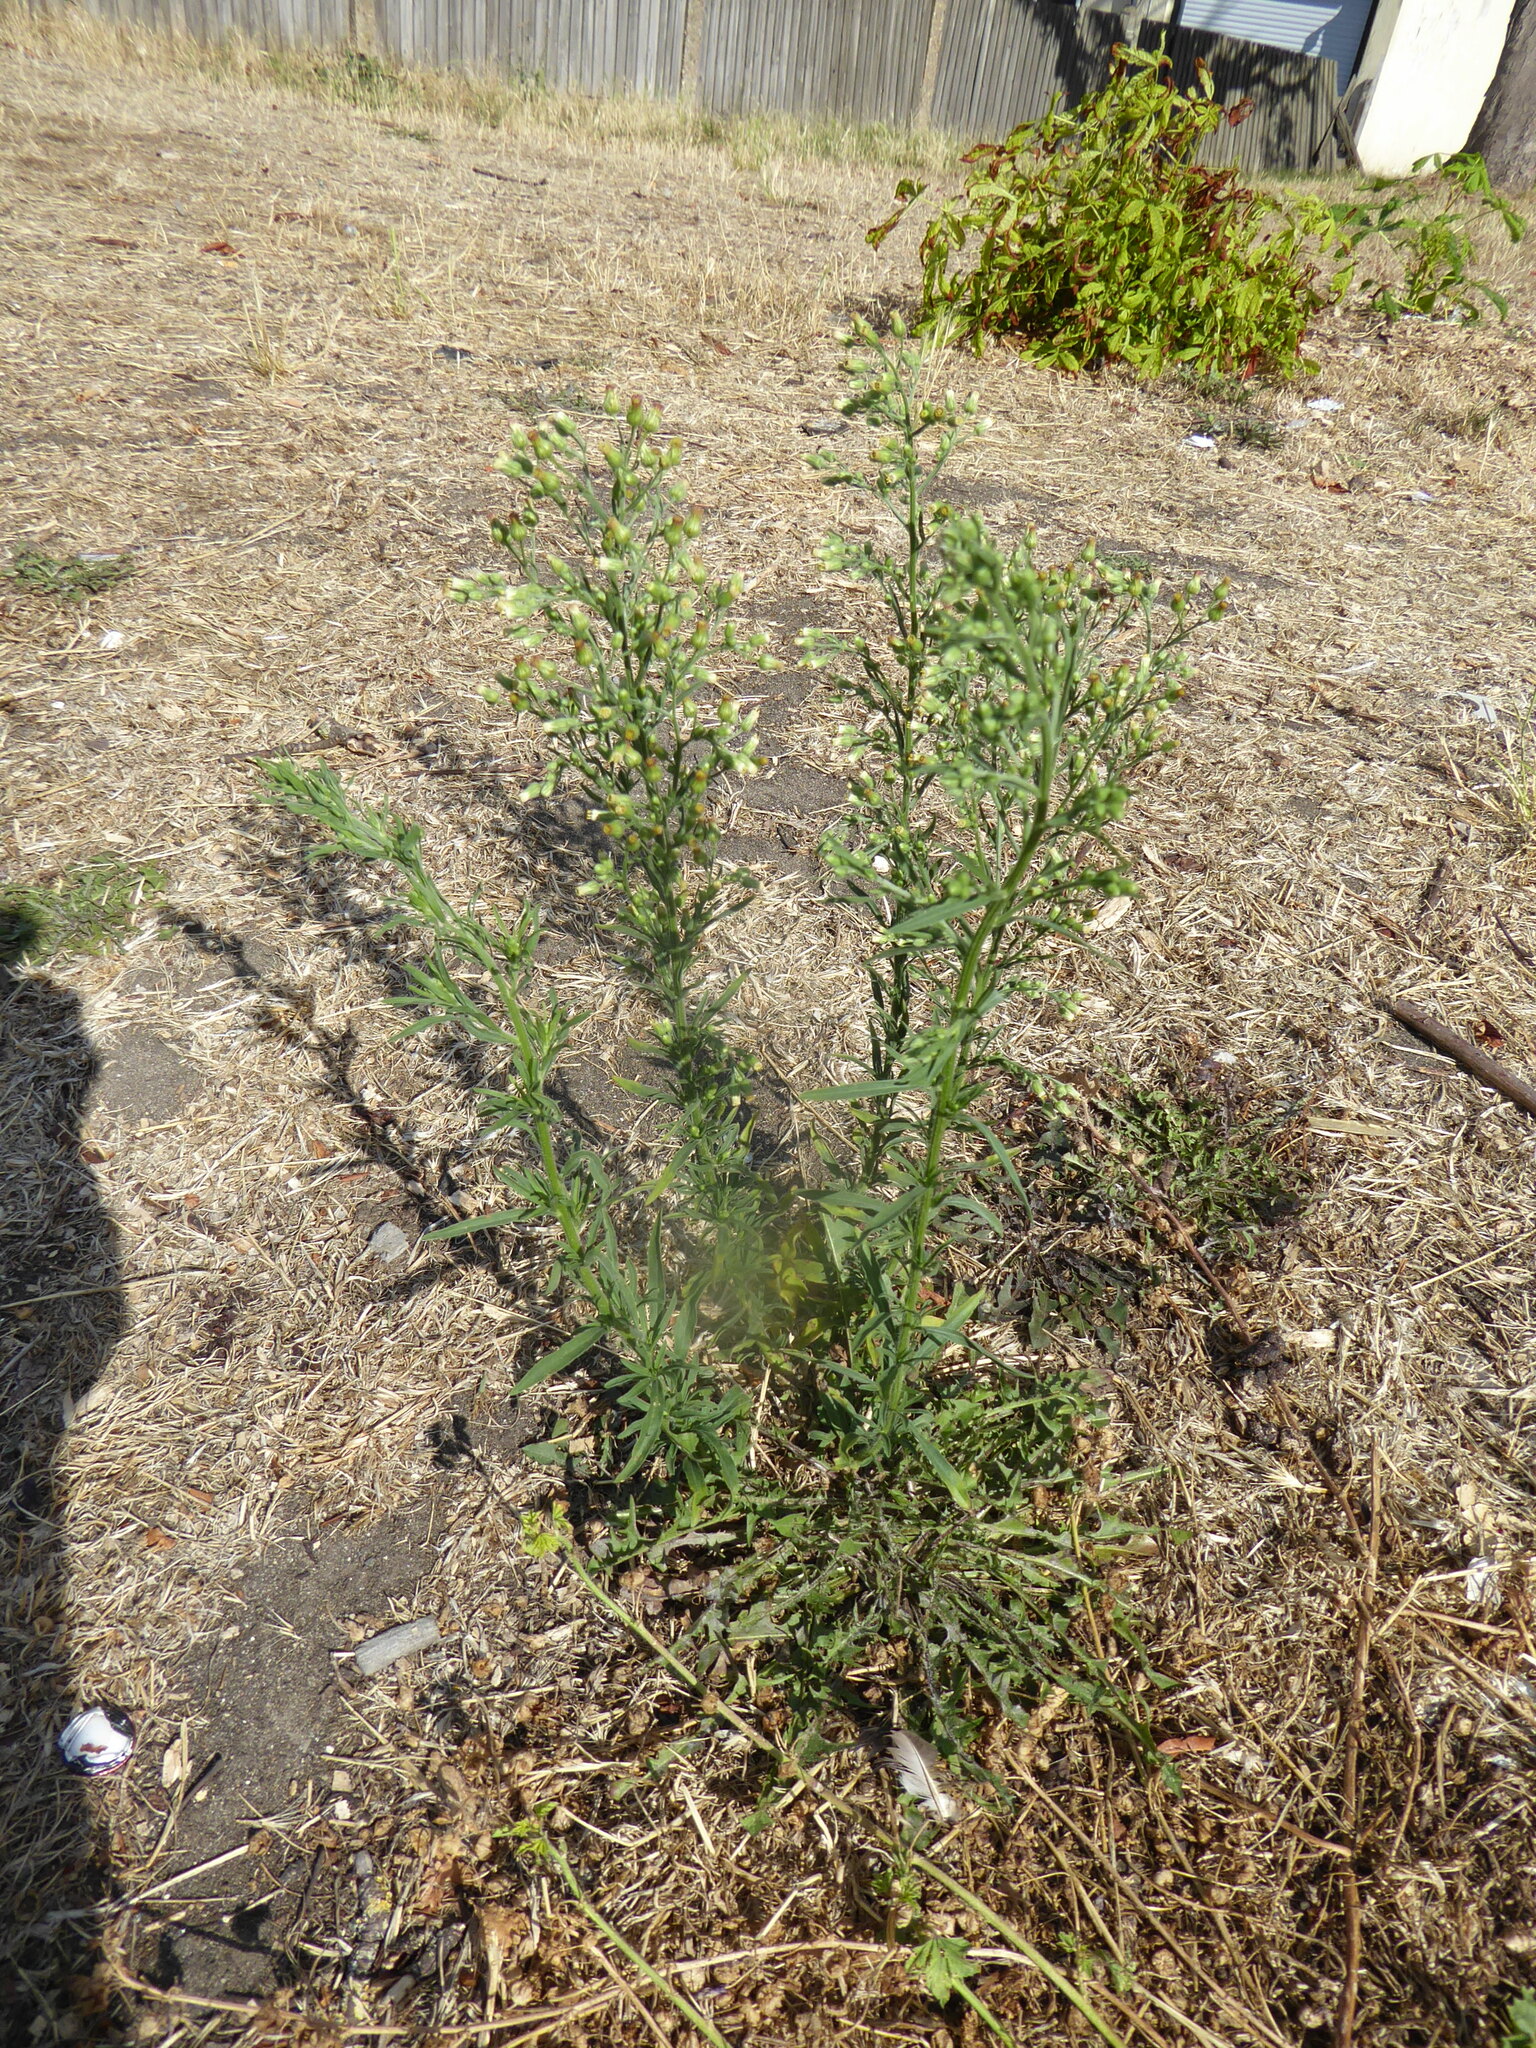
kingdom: Plantae
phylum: Tracheophyta
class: Magnoliopsida
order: Asterales
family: Asteraceae
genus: Erigeron
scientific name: Erigeron sumatrensis
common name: Daisy
